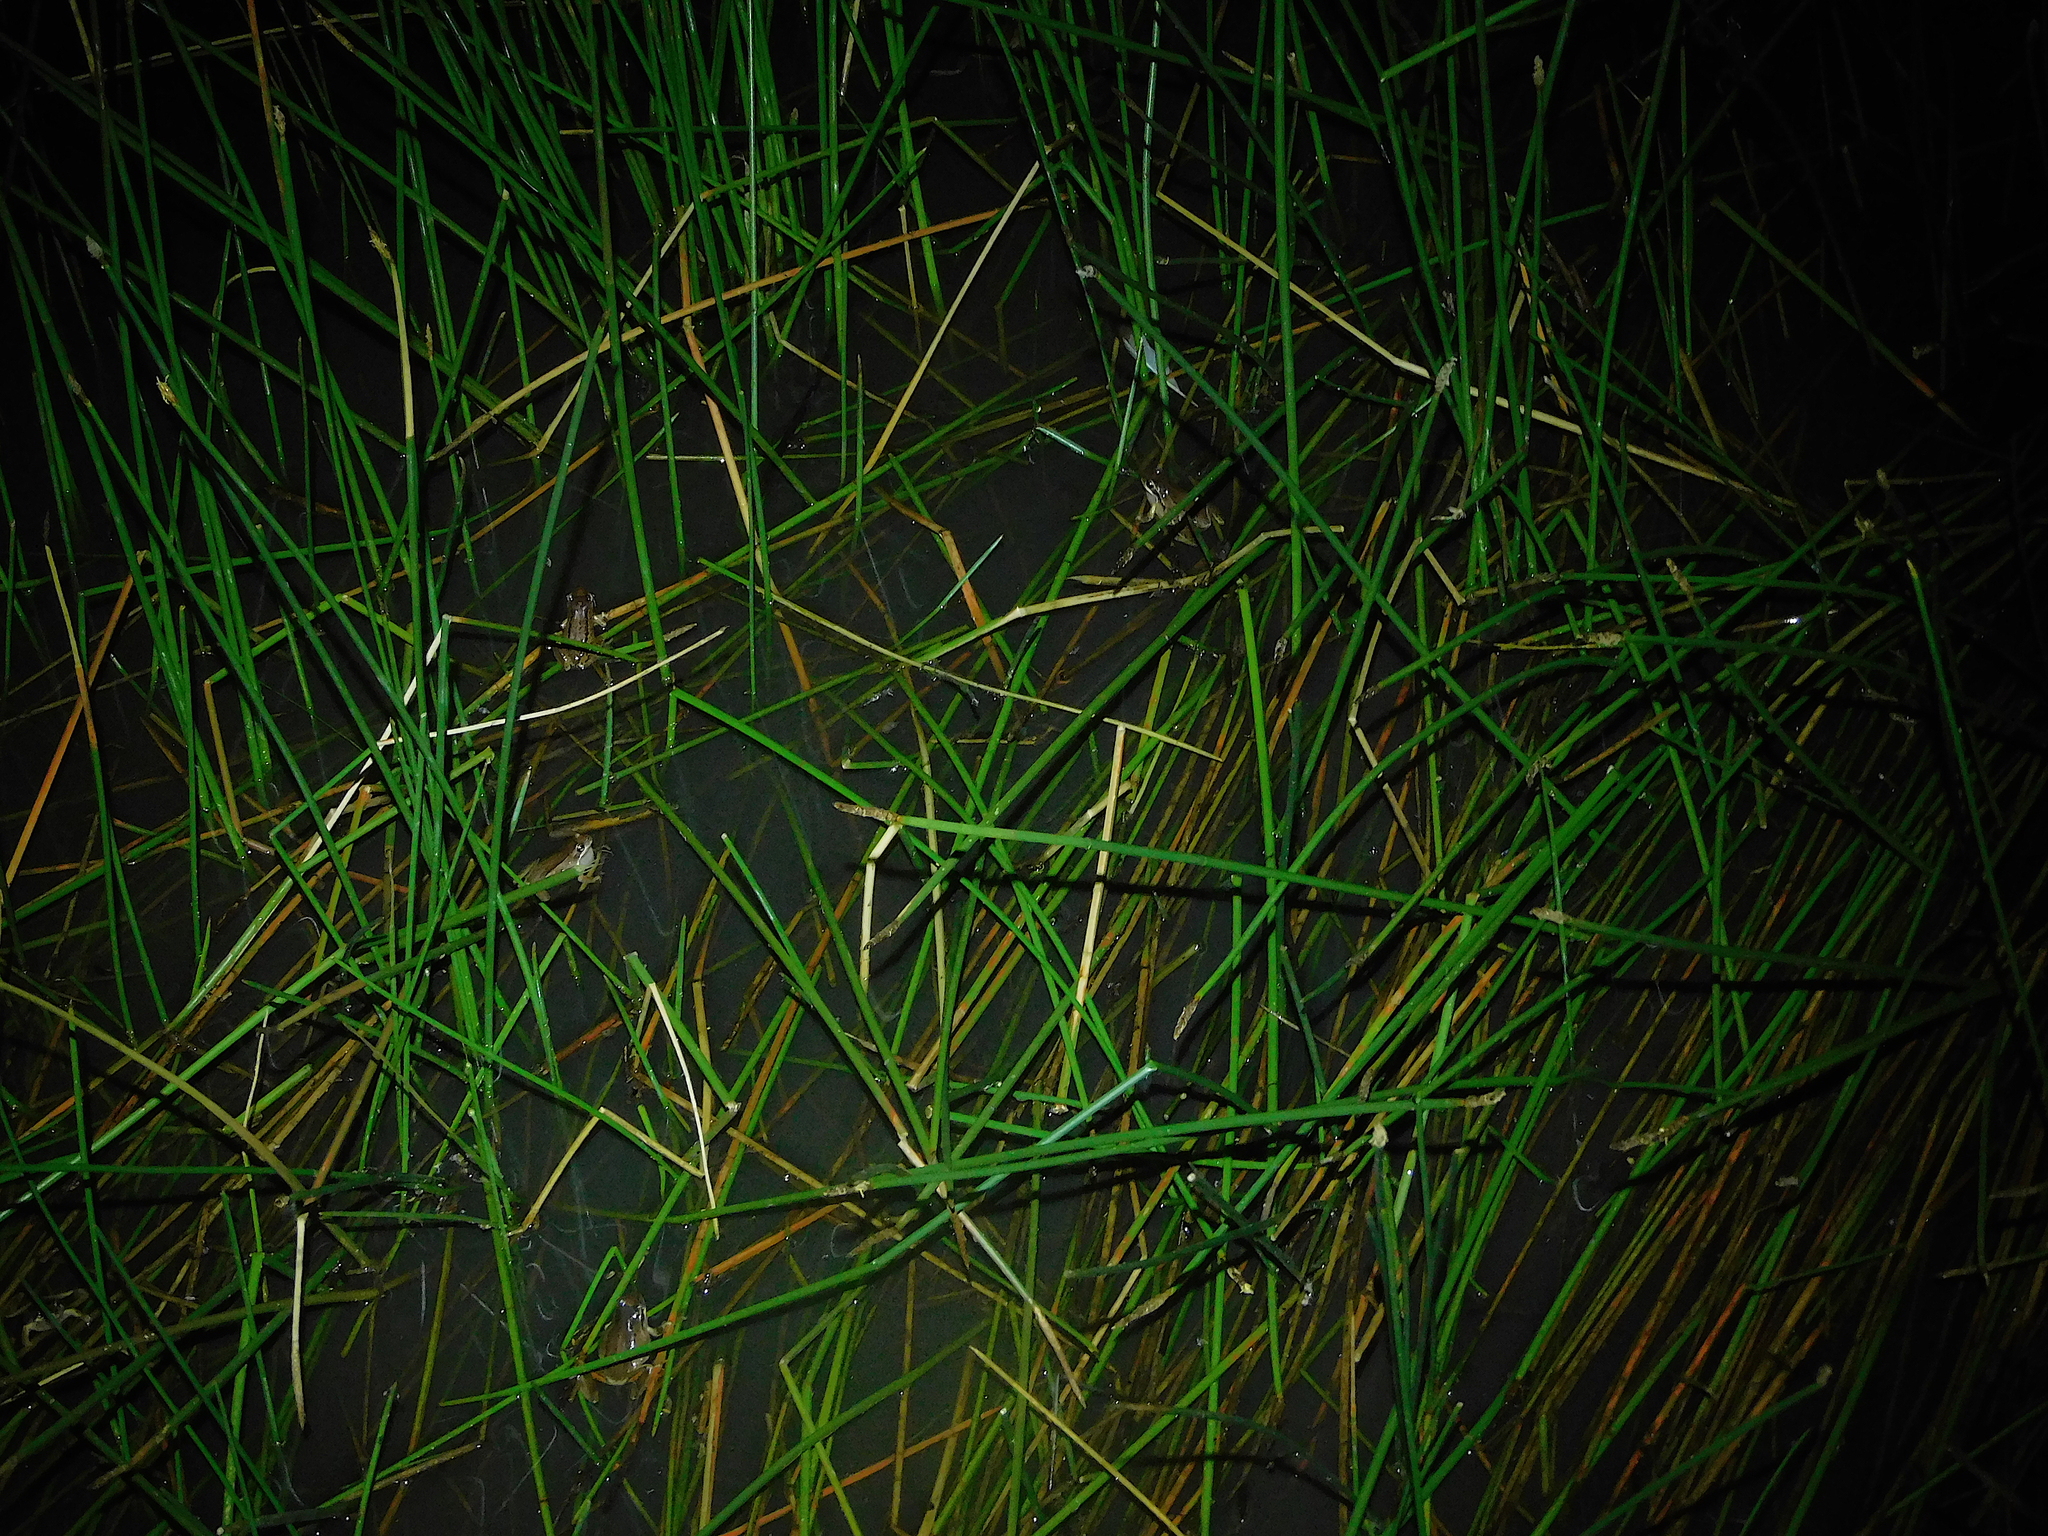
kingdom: Animalia
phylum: Chordata
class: Amphibia
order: Anura
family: Pelodryadidae
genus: Litoria
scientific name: Litoria ewingii
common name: Southern brown tree frog
